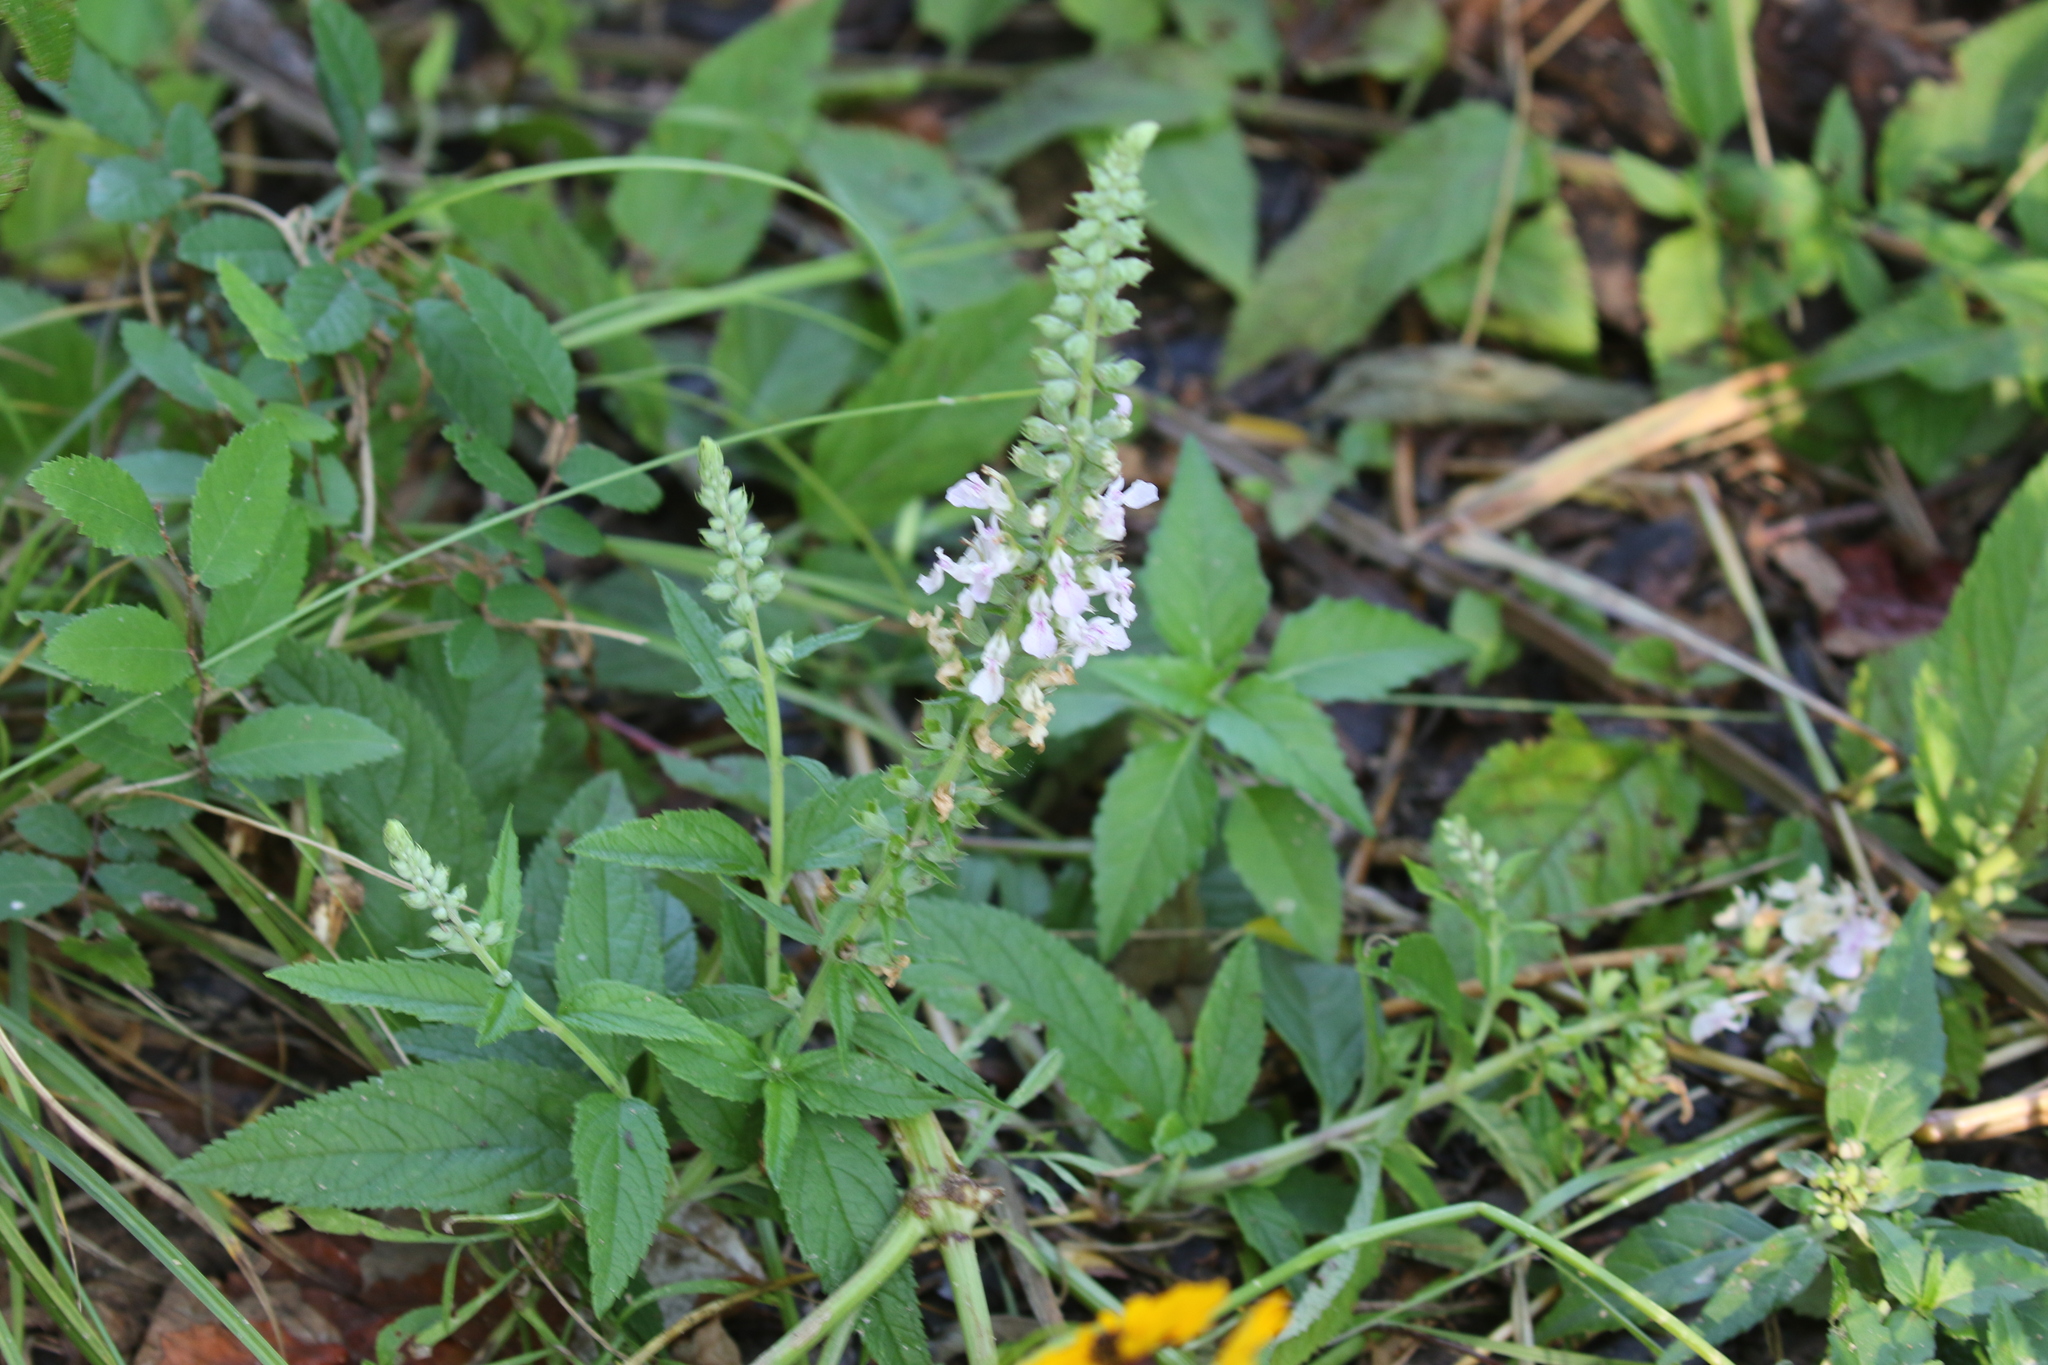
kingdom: Plantae
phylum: Tracheophyta
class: Magnoliopsida
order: Lamiales
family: Lamiaceae
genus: Teucrium
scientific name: Teucrium canadense
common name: American germander
